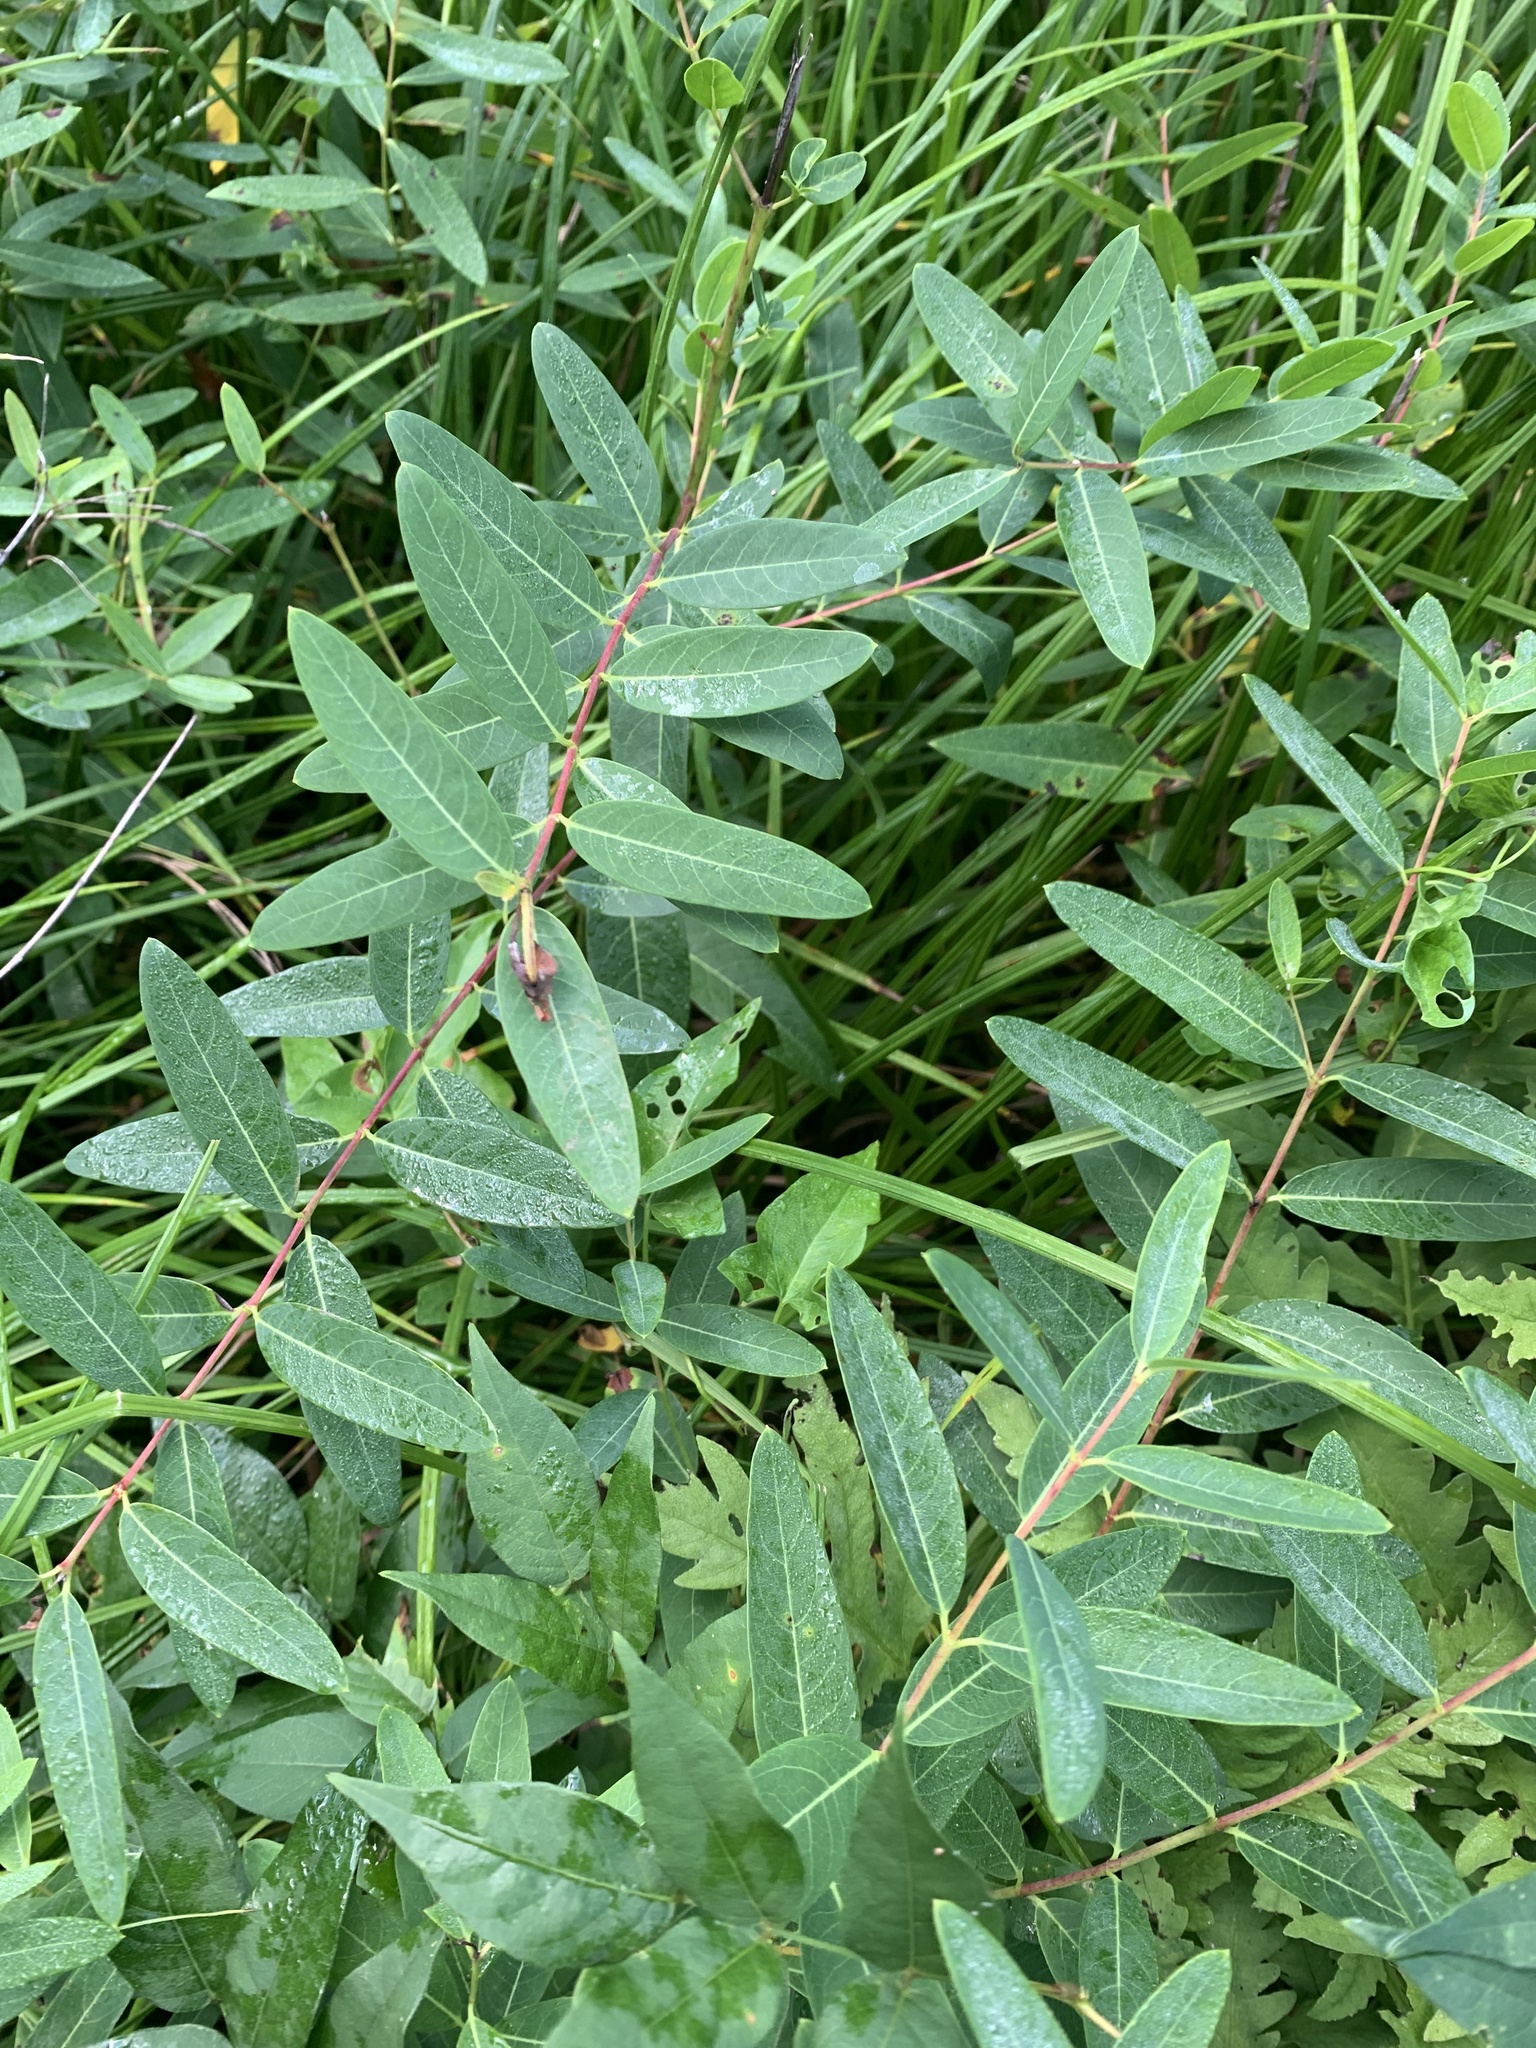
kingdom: Plantae
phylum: Tracheophyta
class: Magnoliopsida
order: Gentianales
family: Apocynaceae
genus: Apocynum
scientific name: Apocynum cannabinum
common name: Hemp dogbane
